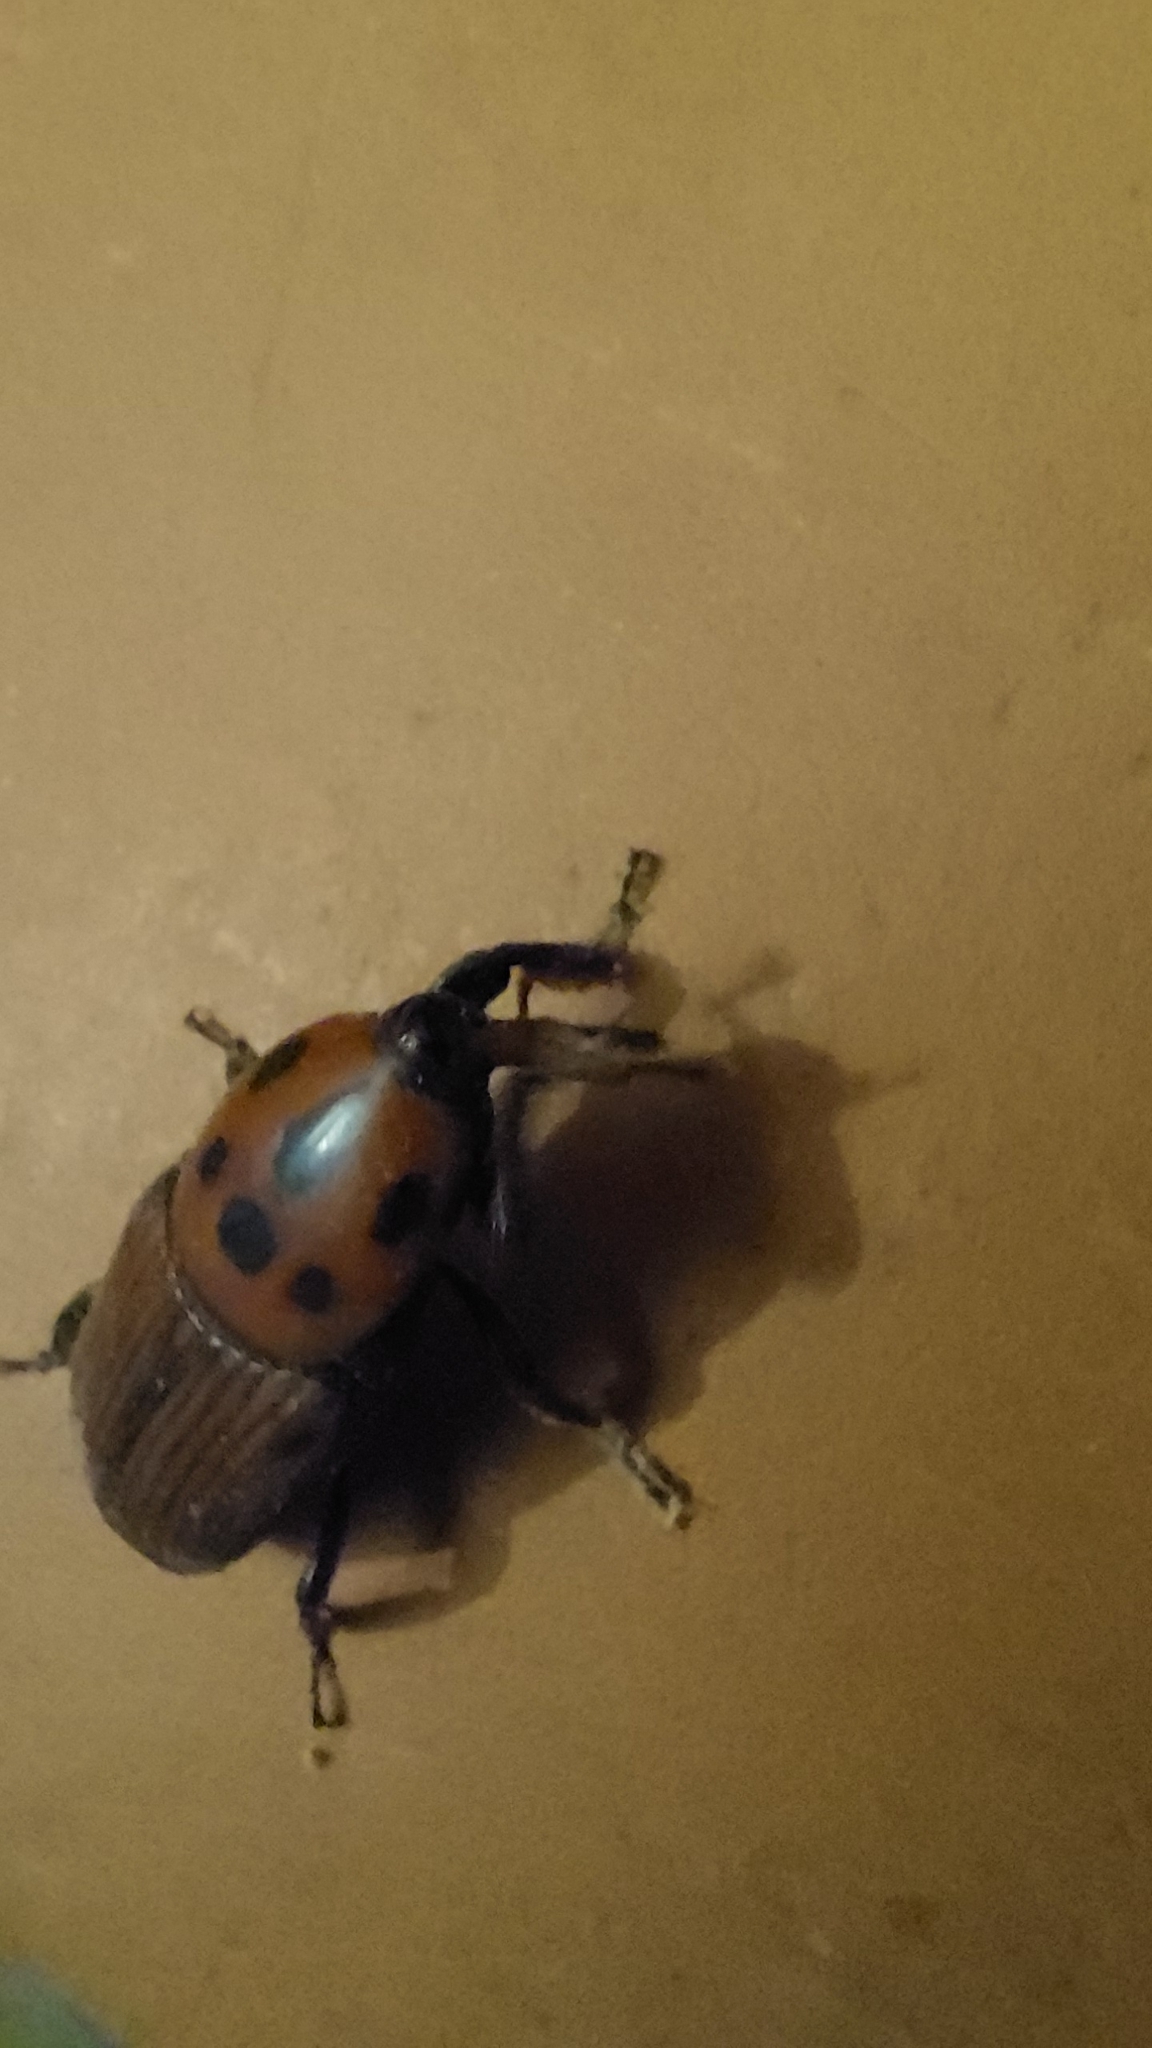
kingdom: Animalia
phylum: Arthropoda
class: Insecta
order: Coleoptera
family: Dryophthoridae
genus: Rhynchophorus
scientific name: Rhynchophorus ferrugineus
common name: Red palm weevil
